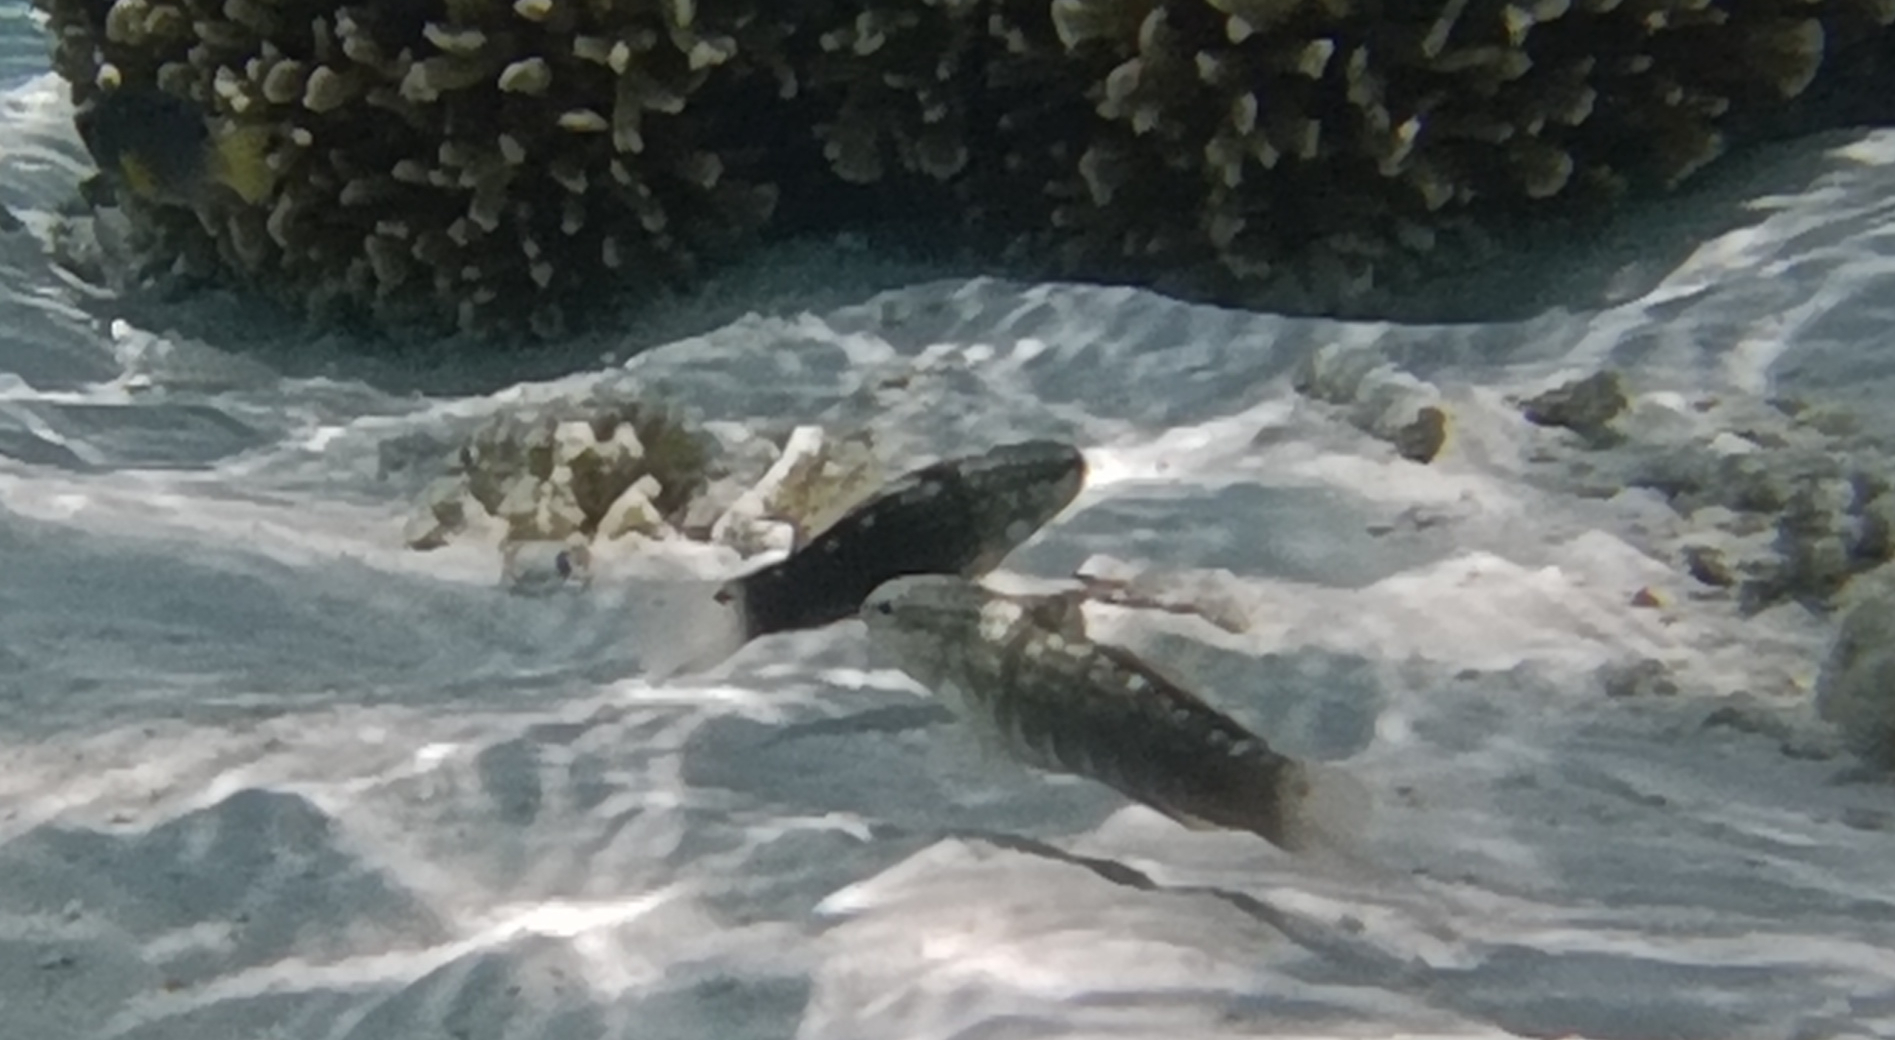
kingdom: Animalia
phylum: Chordata
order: Perciformes
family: Gobiidae
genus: Amblygobius
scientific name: Amblygobius semicinctus
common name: Halfbarred goby
